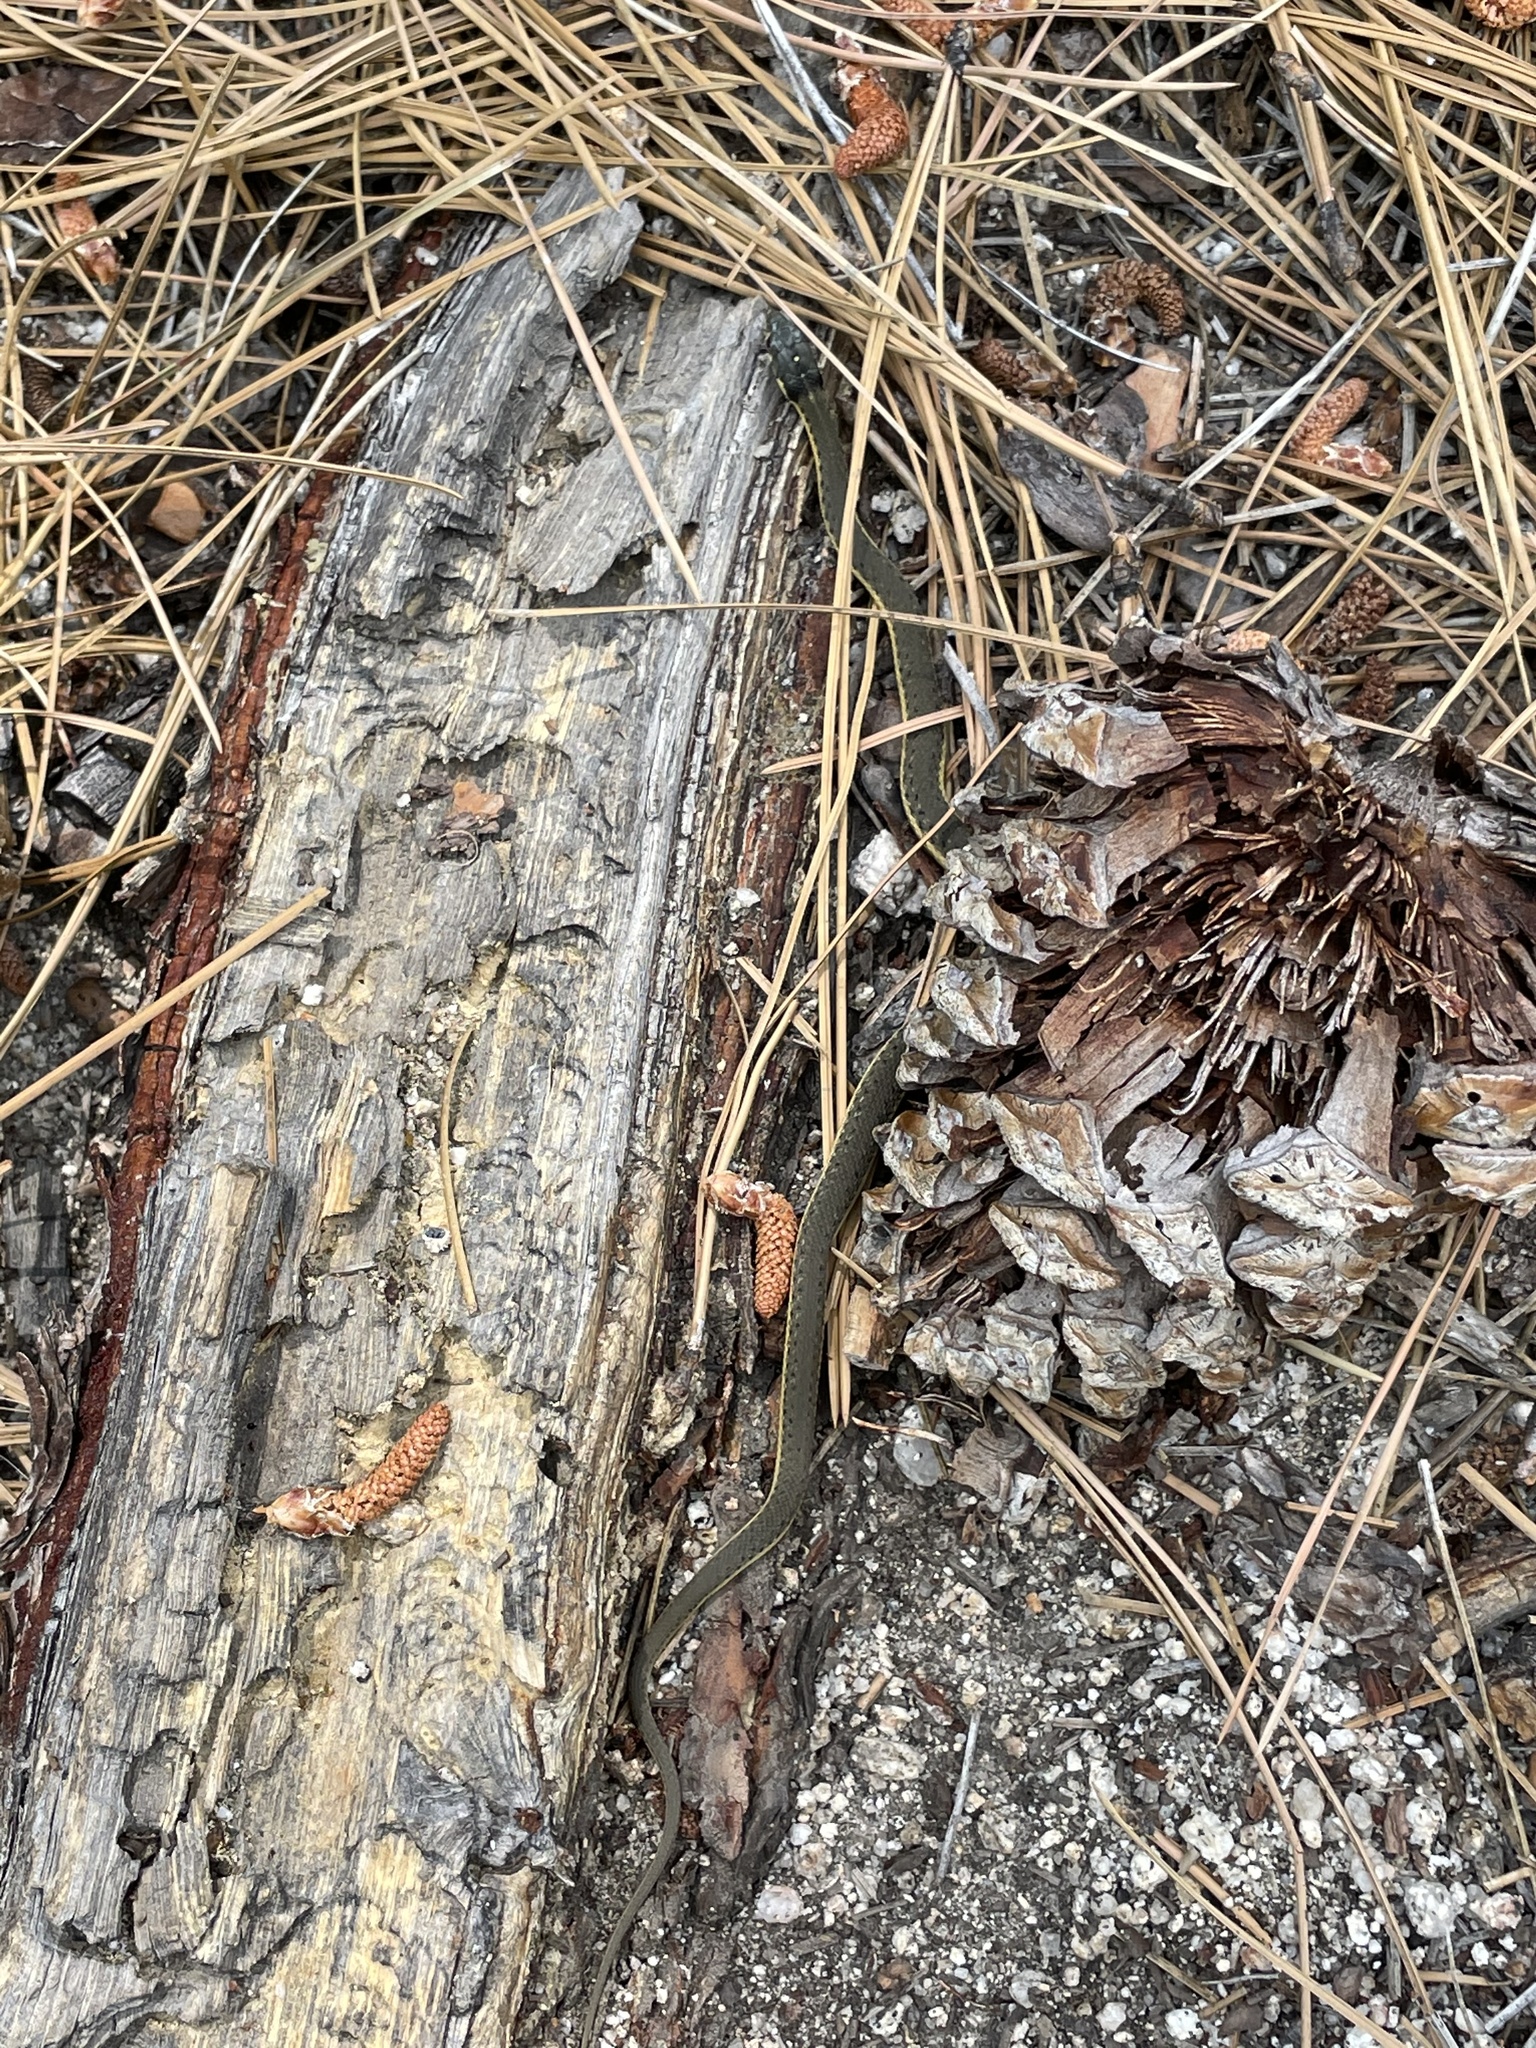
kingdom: Animalia
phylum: Chordata
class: Squamata
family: Colubridae
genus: Thamnophis
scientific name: Thamnophis hammondii
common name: Two-striped garter snake
